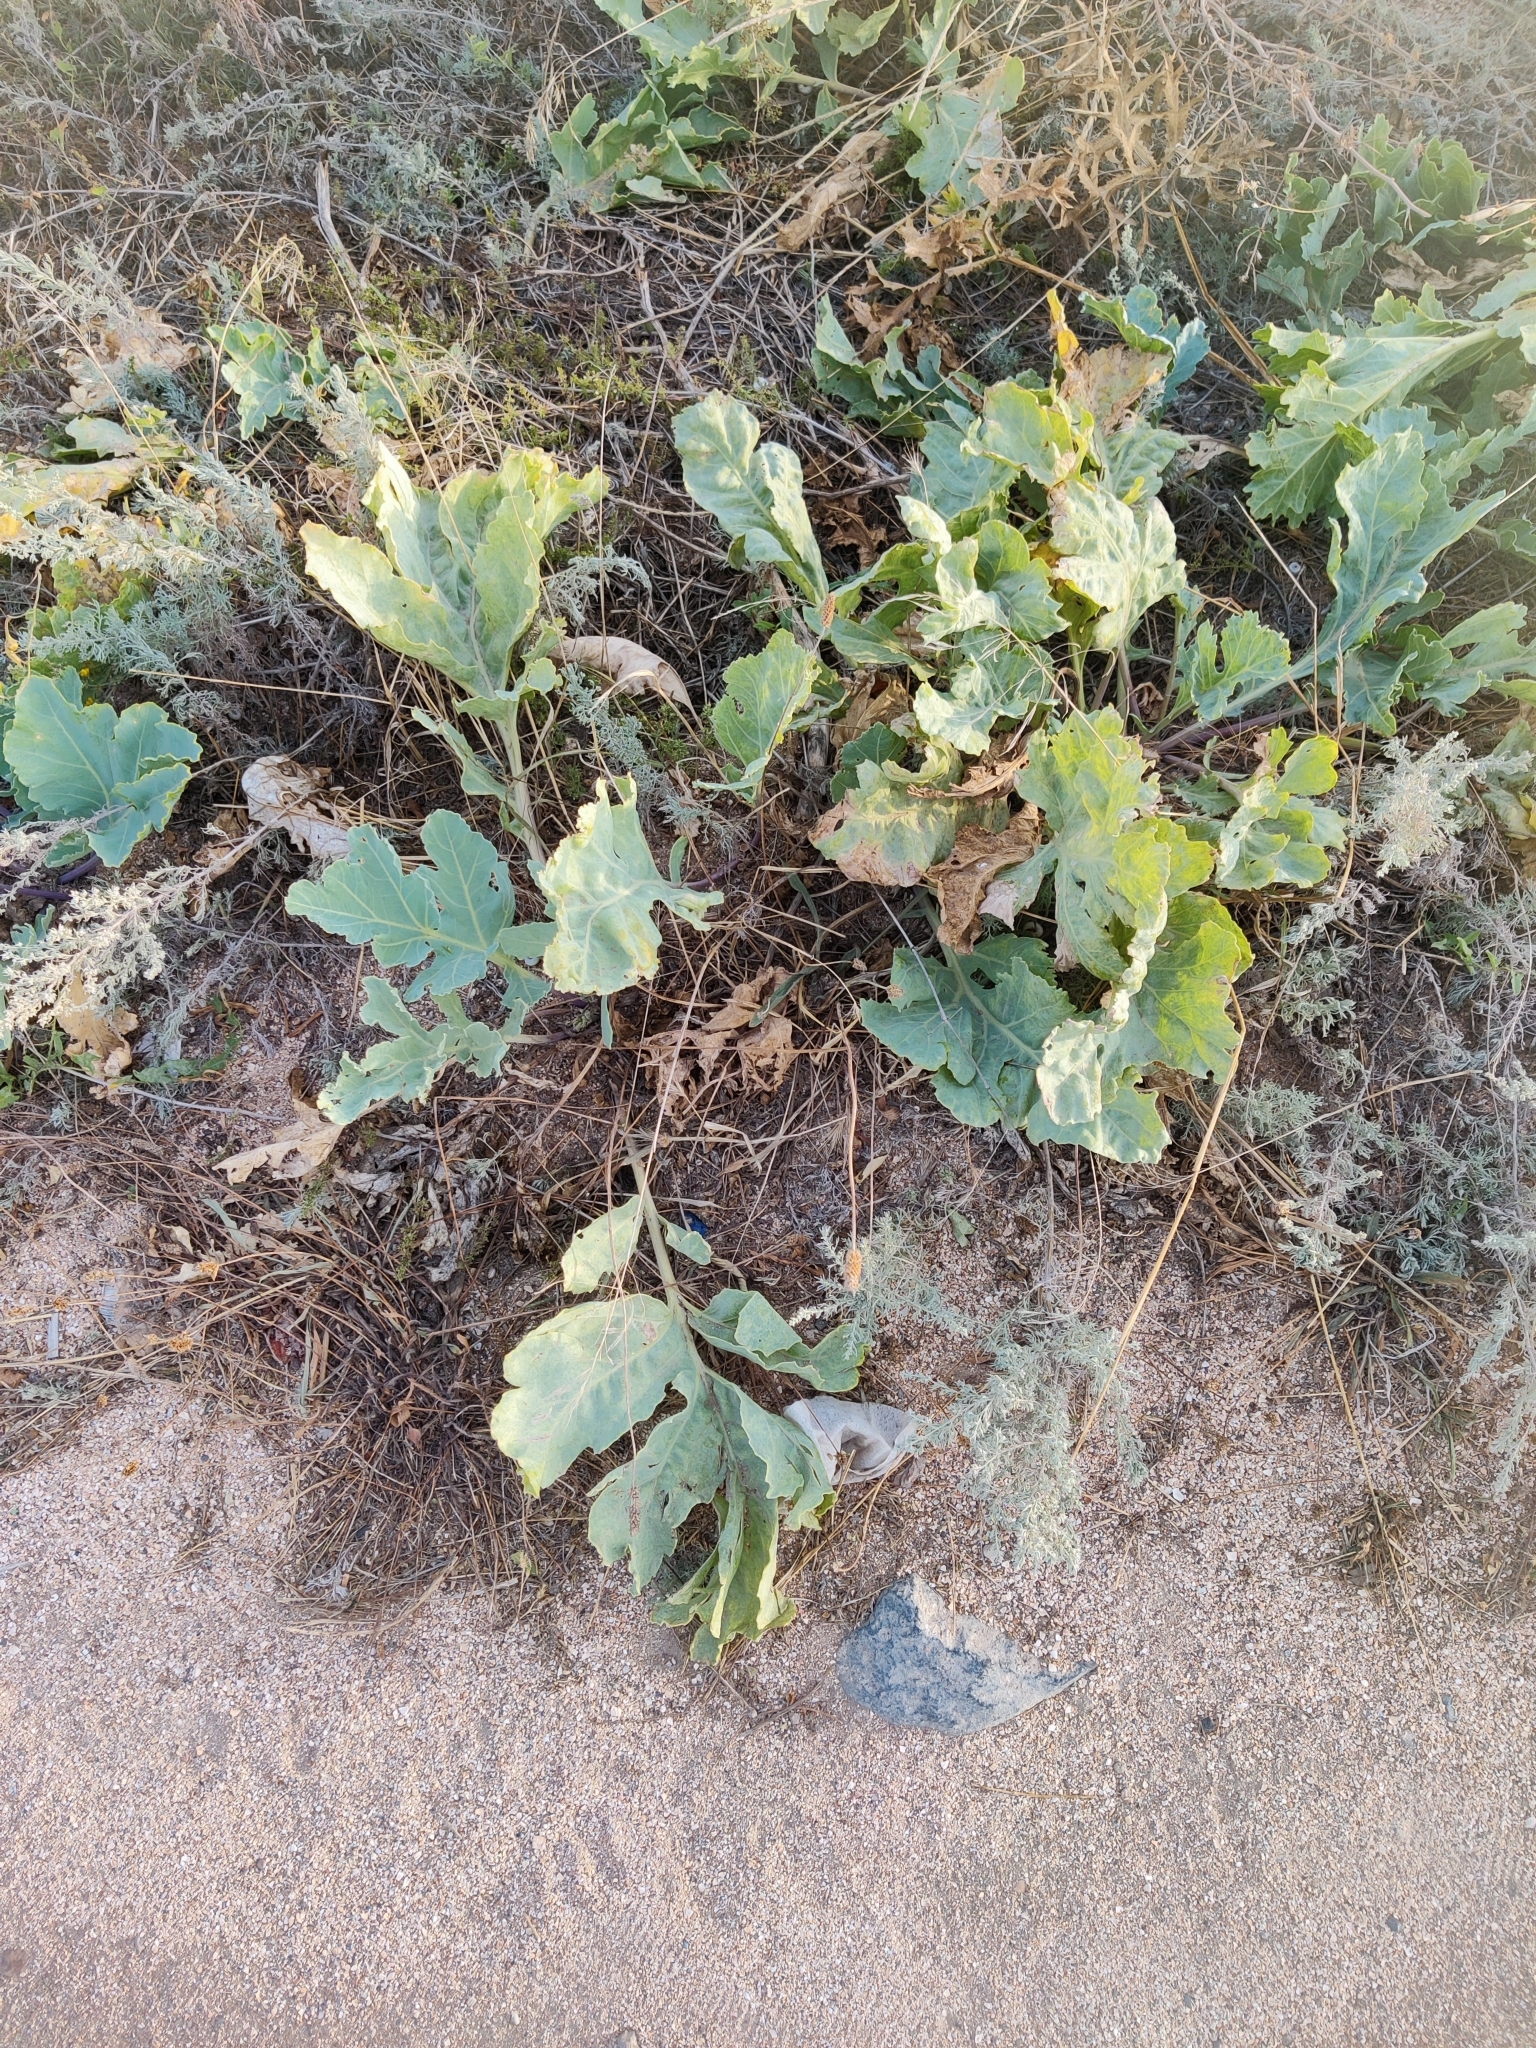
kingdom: Plantae
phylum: Tracheophyta
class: Magnoliopsida
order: Brassicales
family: Brassicaceae
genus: Crambe
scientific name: Crambe maritima
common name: Sea-kale
